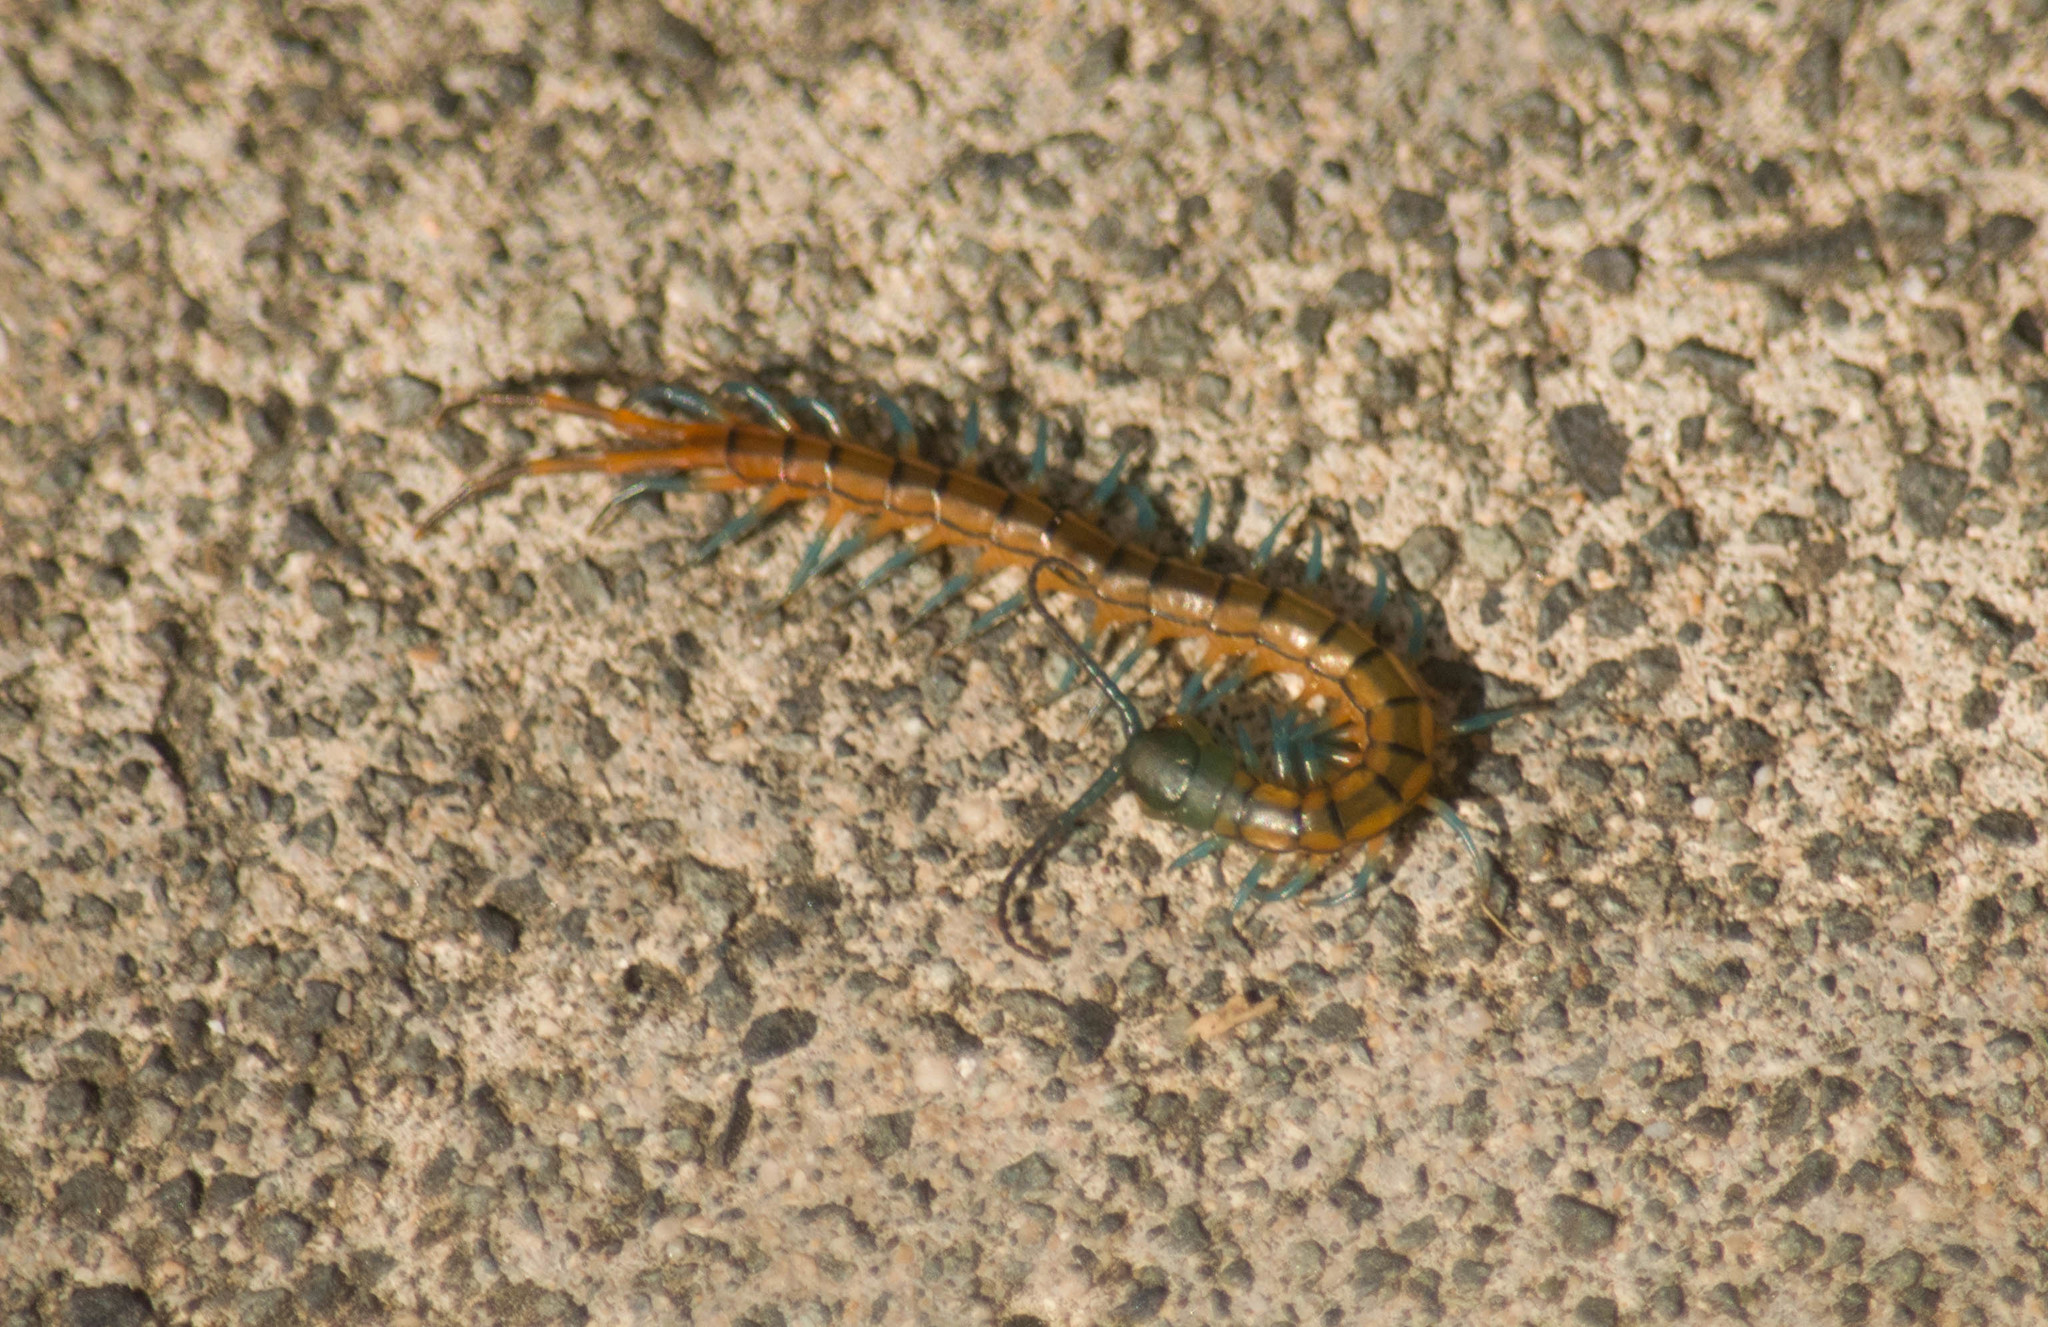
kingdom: Animalia
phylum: Arthropoda
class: Chilopoda
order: Scolopendromorpha
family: Scolopendridae
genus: Scolopendra
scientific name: Scolopendra subspinipes
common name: Centipede
